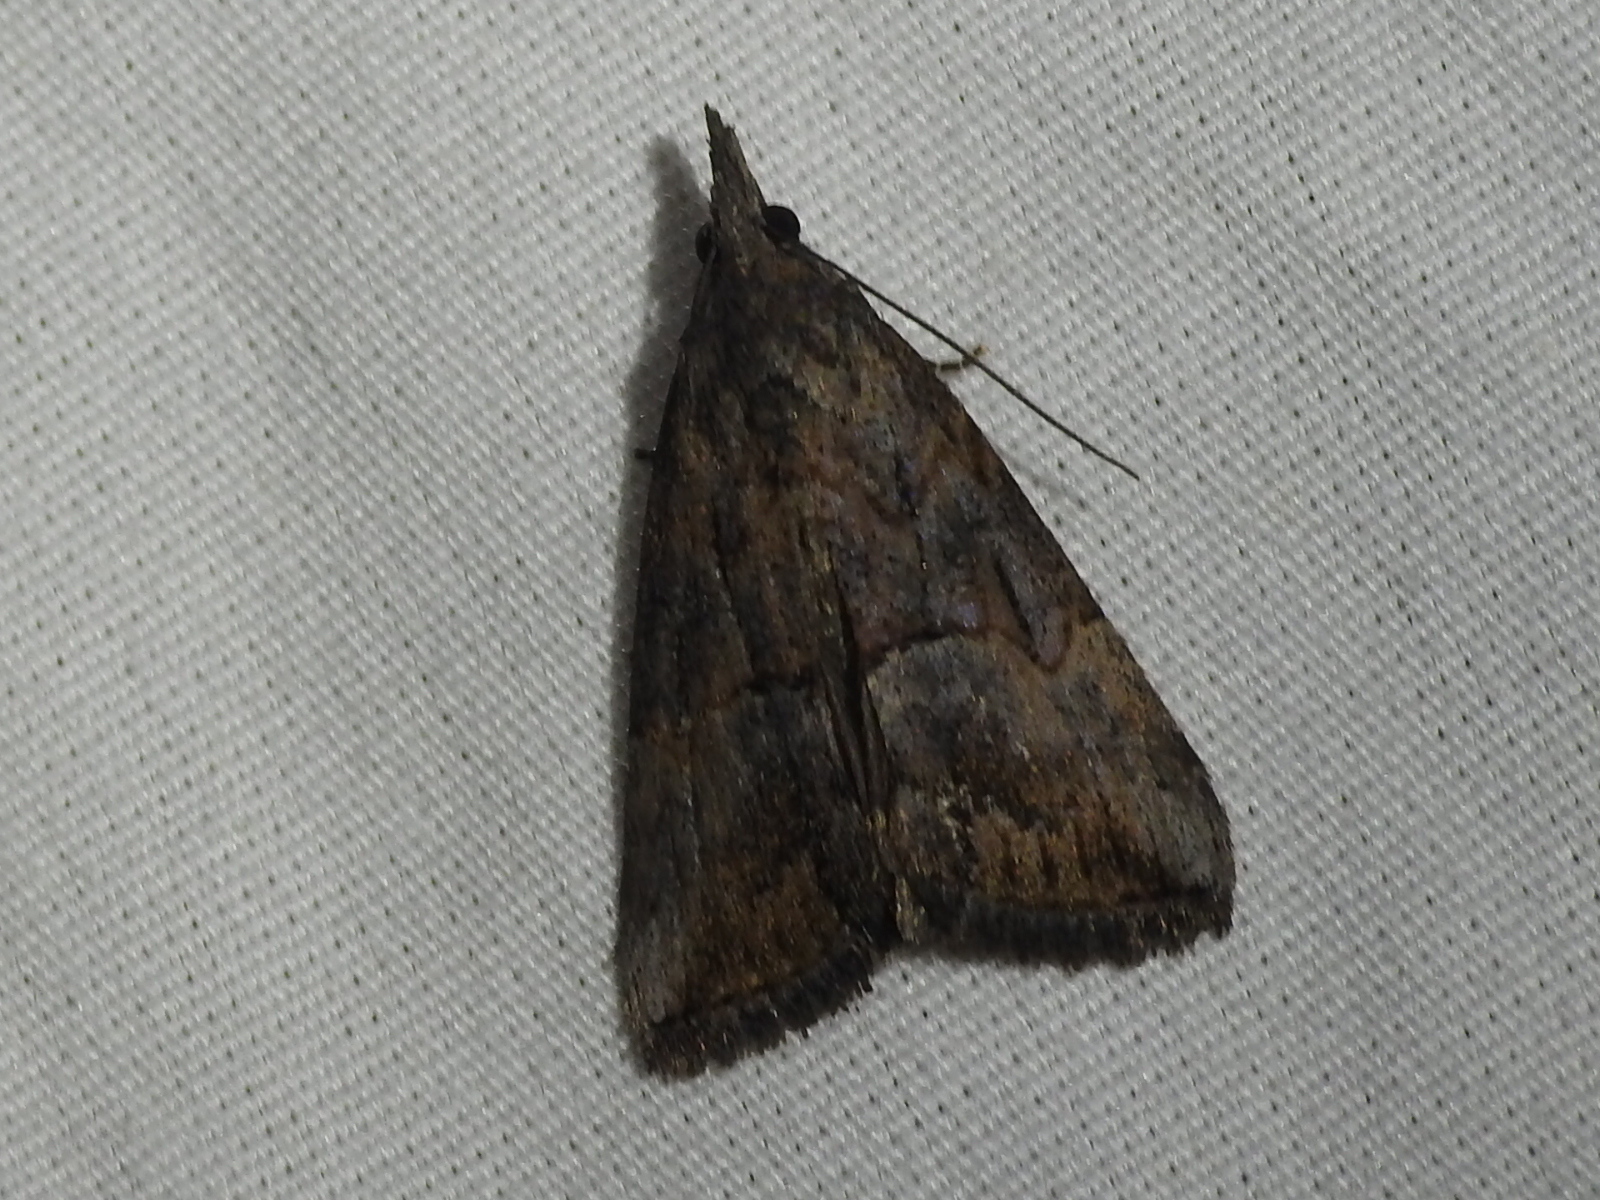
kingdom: Animalia
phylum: Arthropoda
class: Insecta
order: Lepidoptera
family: Erebidae
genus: Hypena
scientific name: Hypena scabra
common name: Green cloverworm
